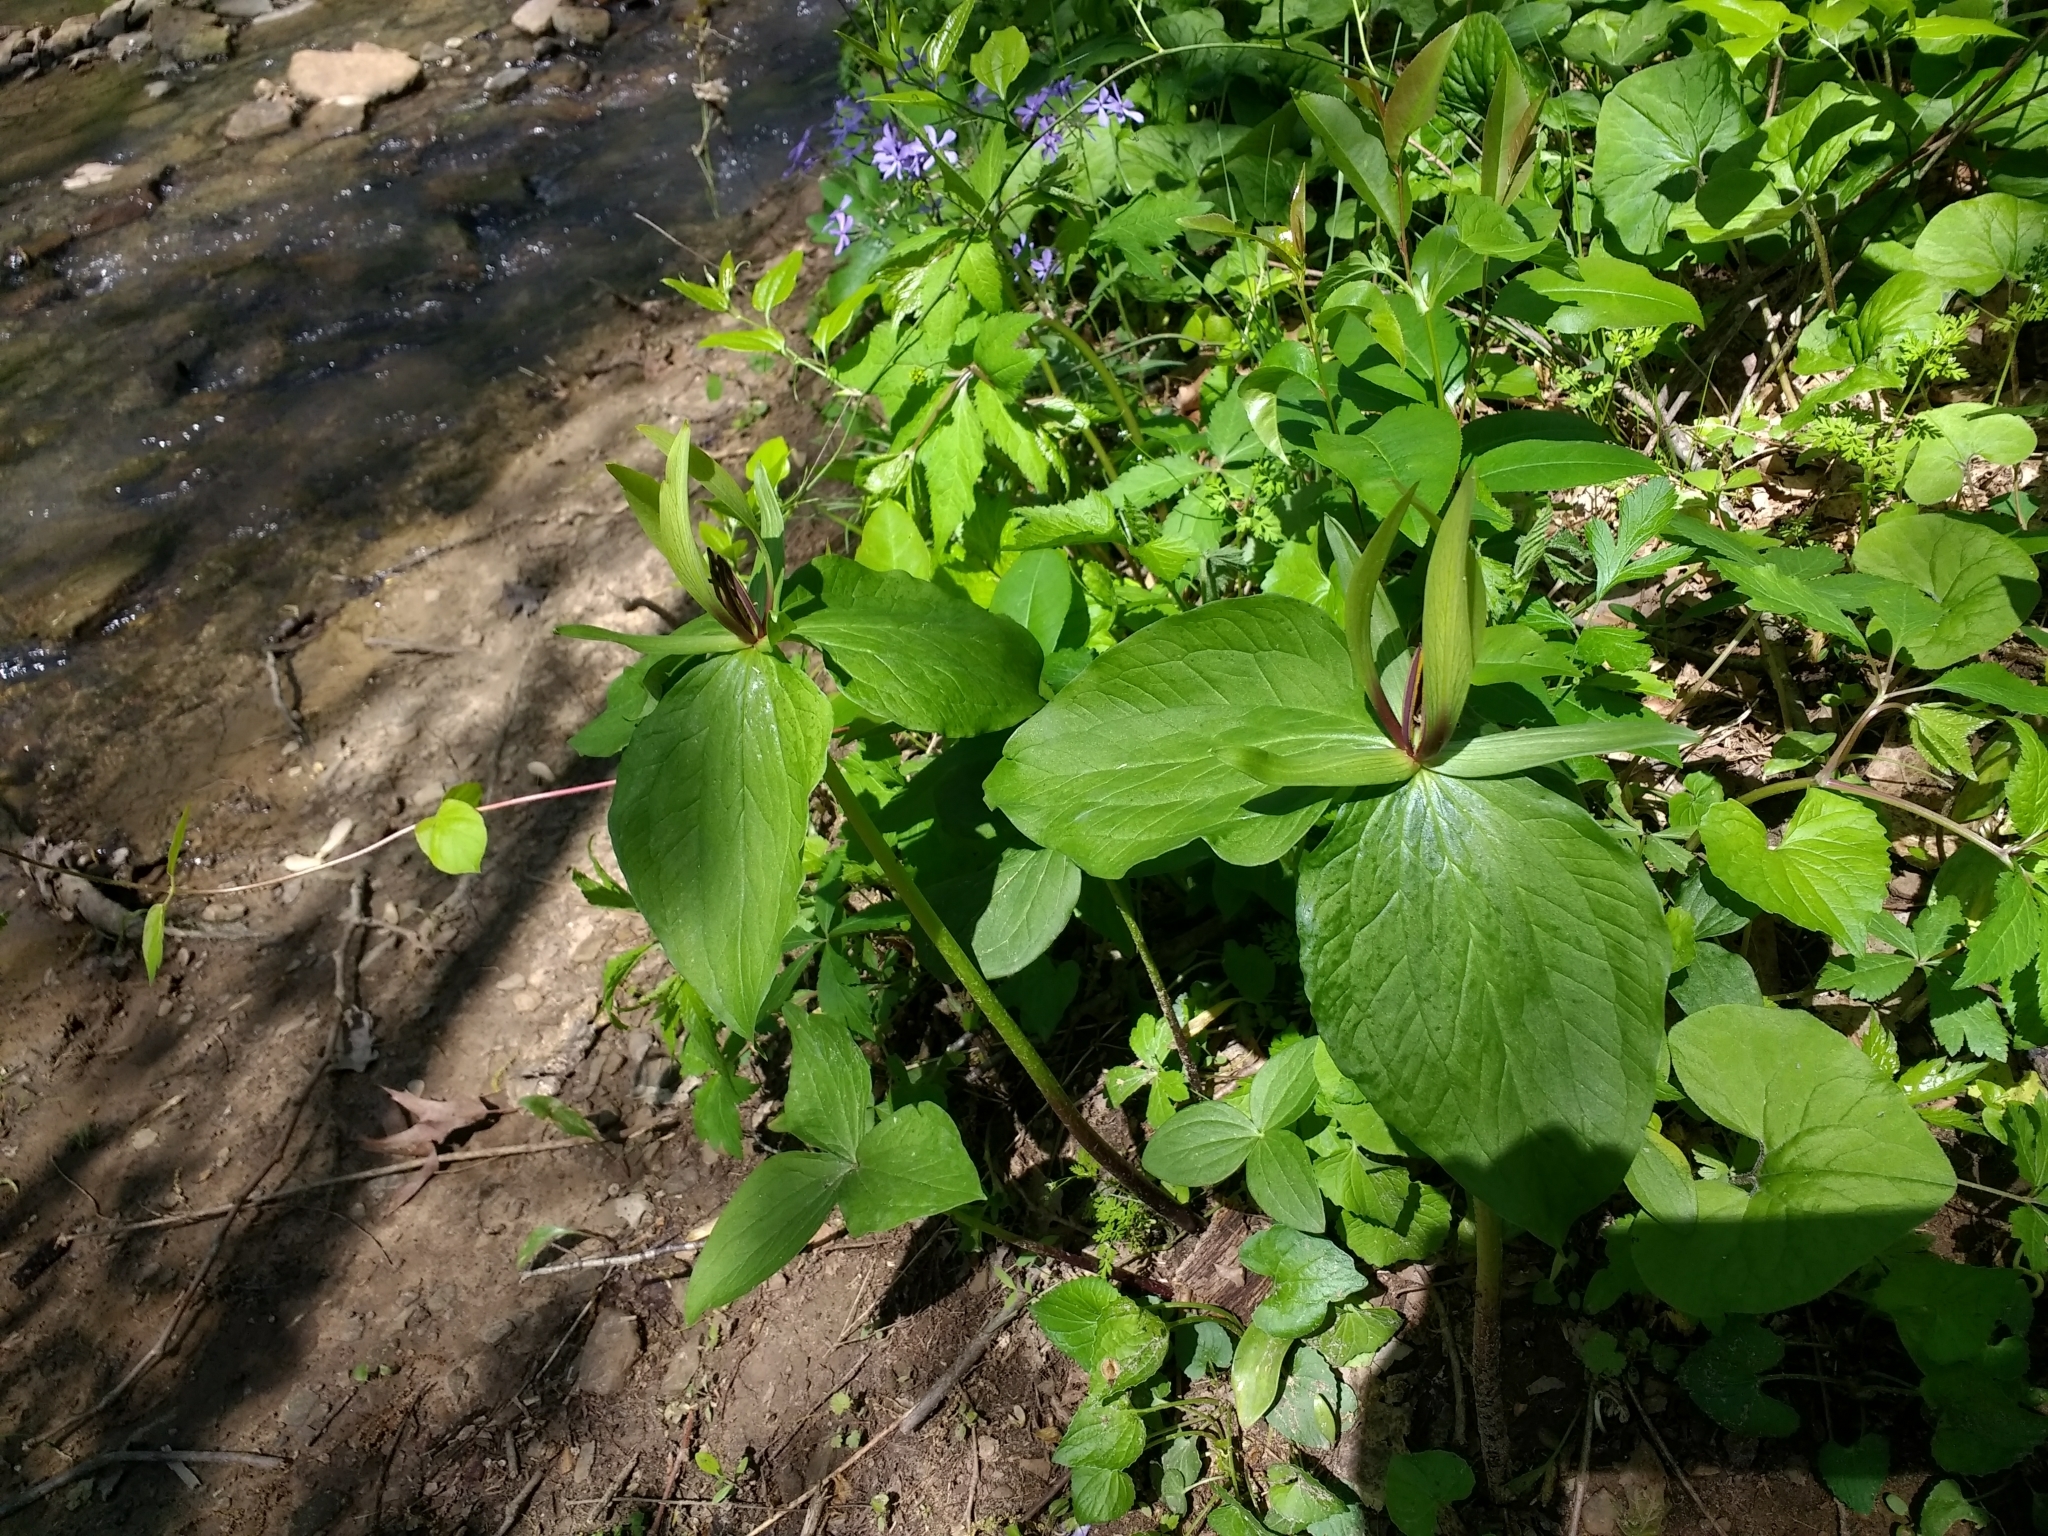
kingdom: Plantae
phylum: Tracheophyta
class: Liliopsida
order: Liliales
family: Melanthiaceae
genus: Trillium
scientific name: Trillium viridescens
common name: Ozark green trillium
